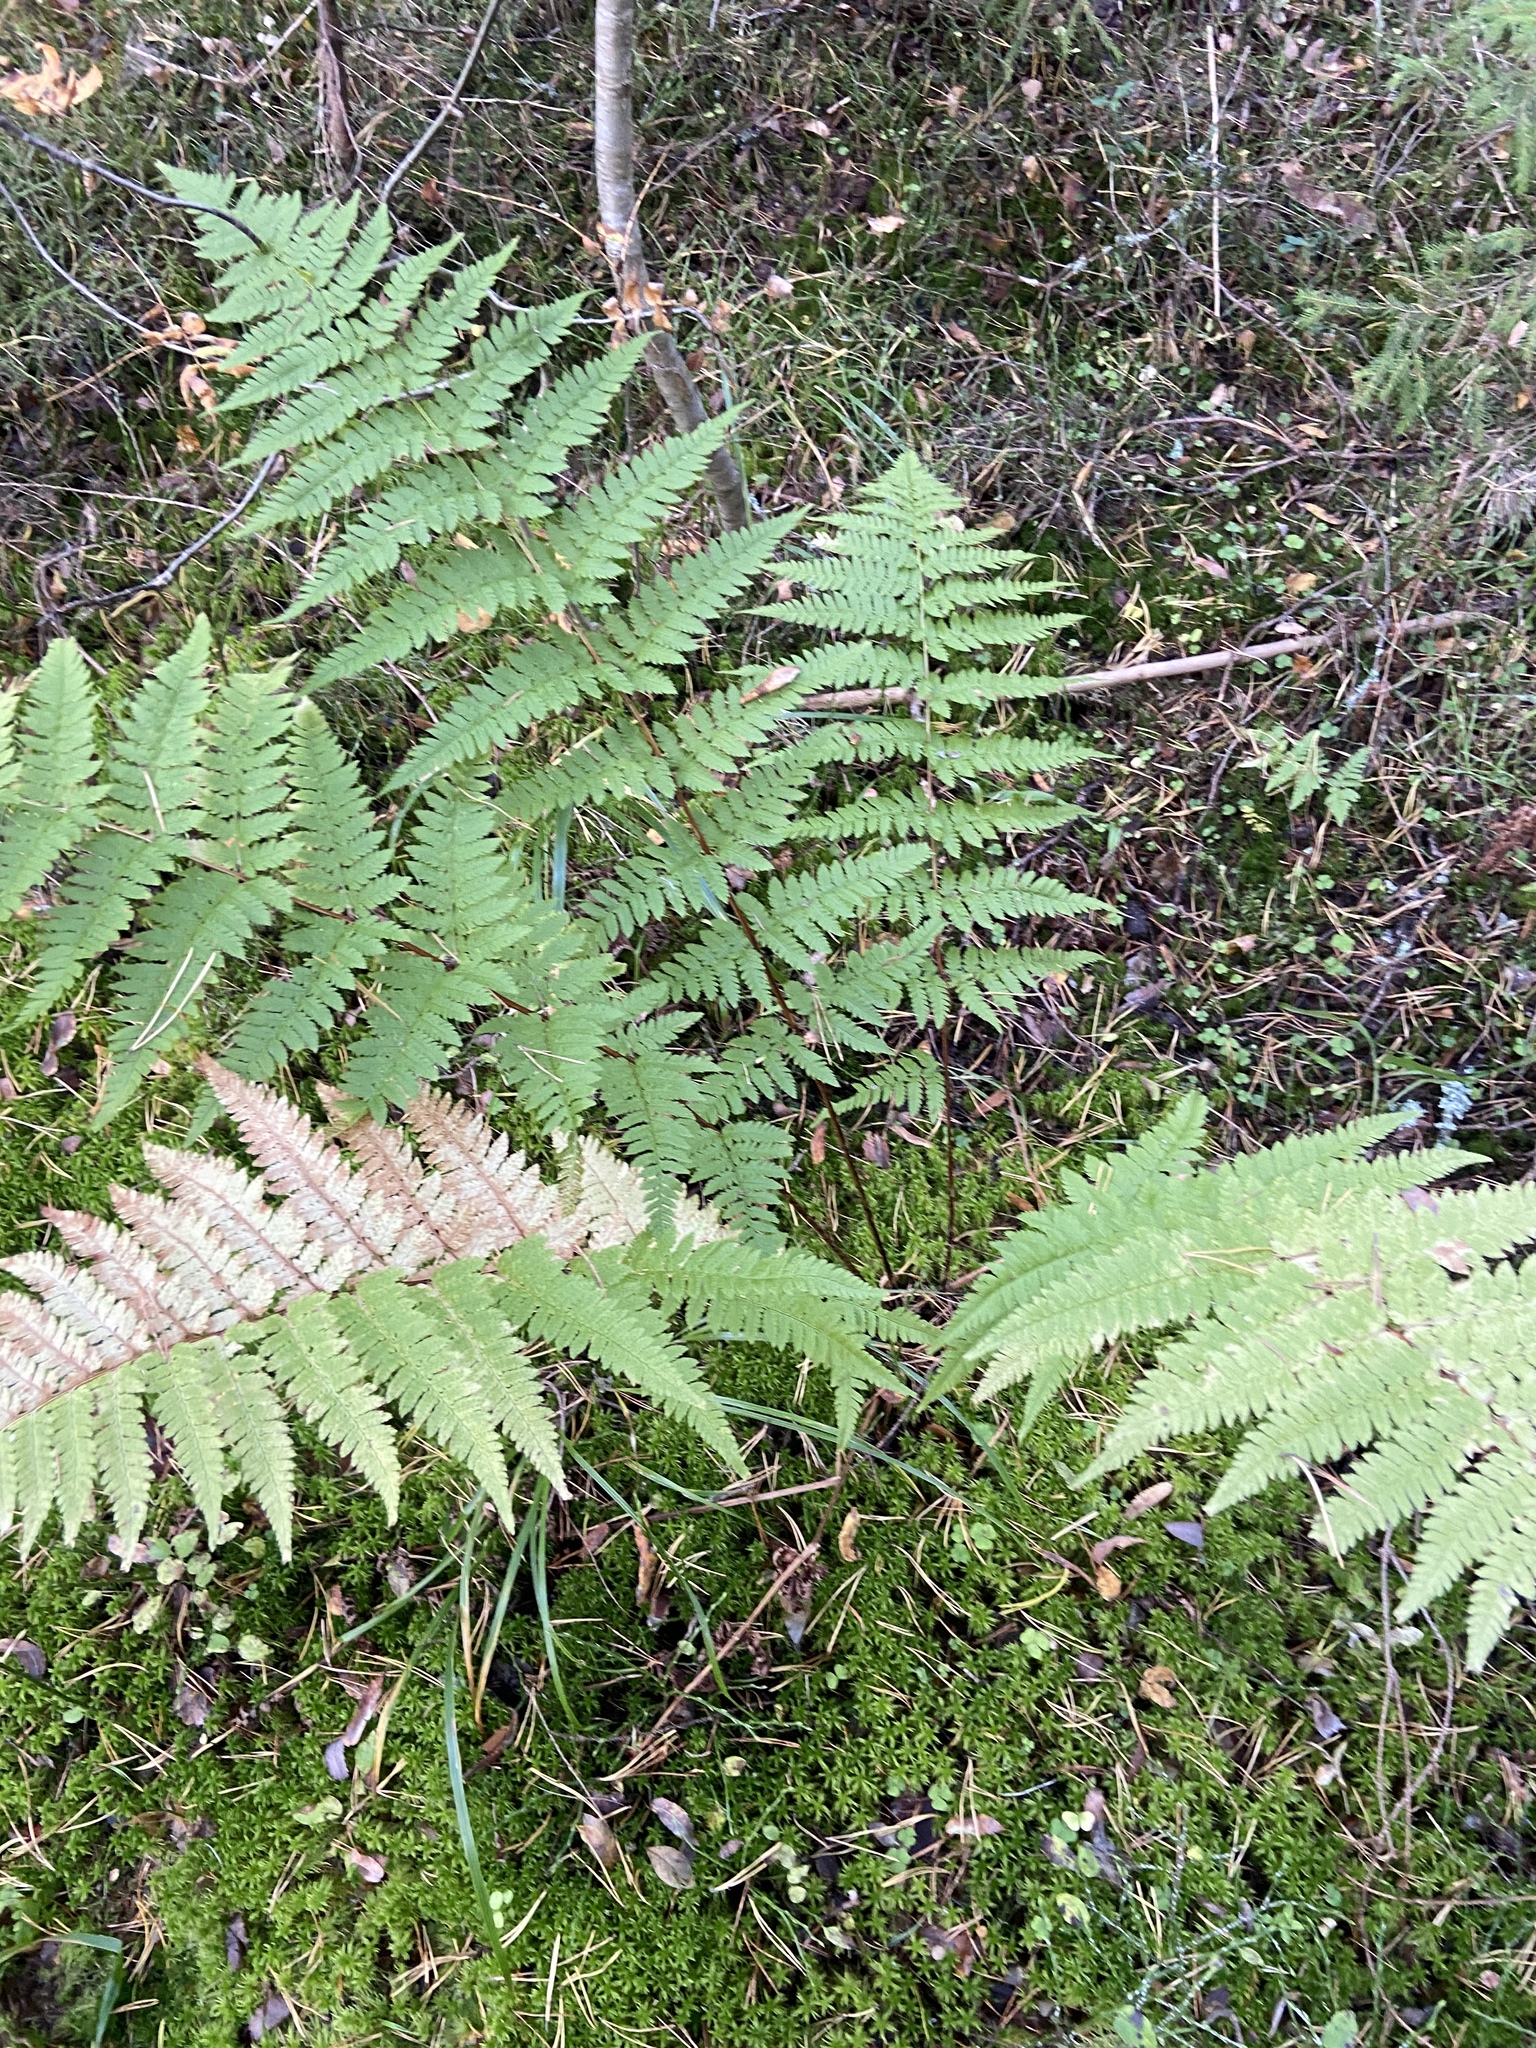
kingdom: Plantae
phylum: Tracheophyta
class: Polypodiopsida
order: Polypodiales
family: Dryopteridaceae
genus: Dryopteris
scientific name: Dryopteris carthusiana
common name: Narrow buckler-fern
